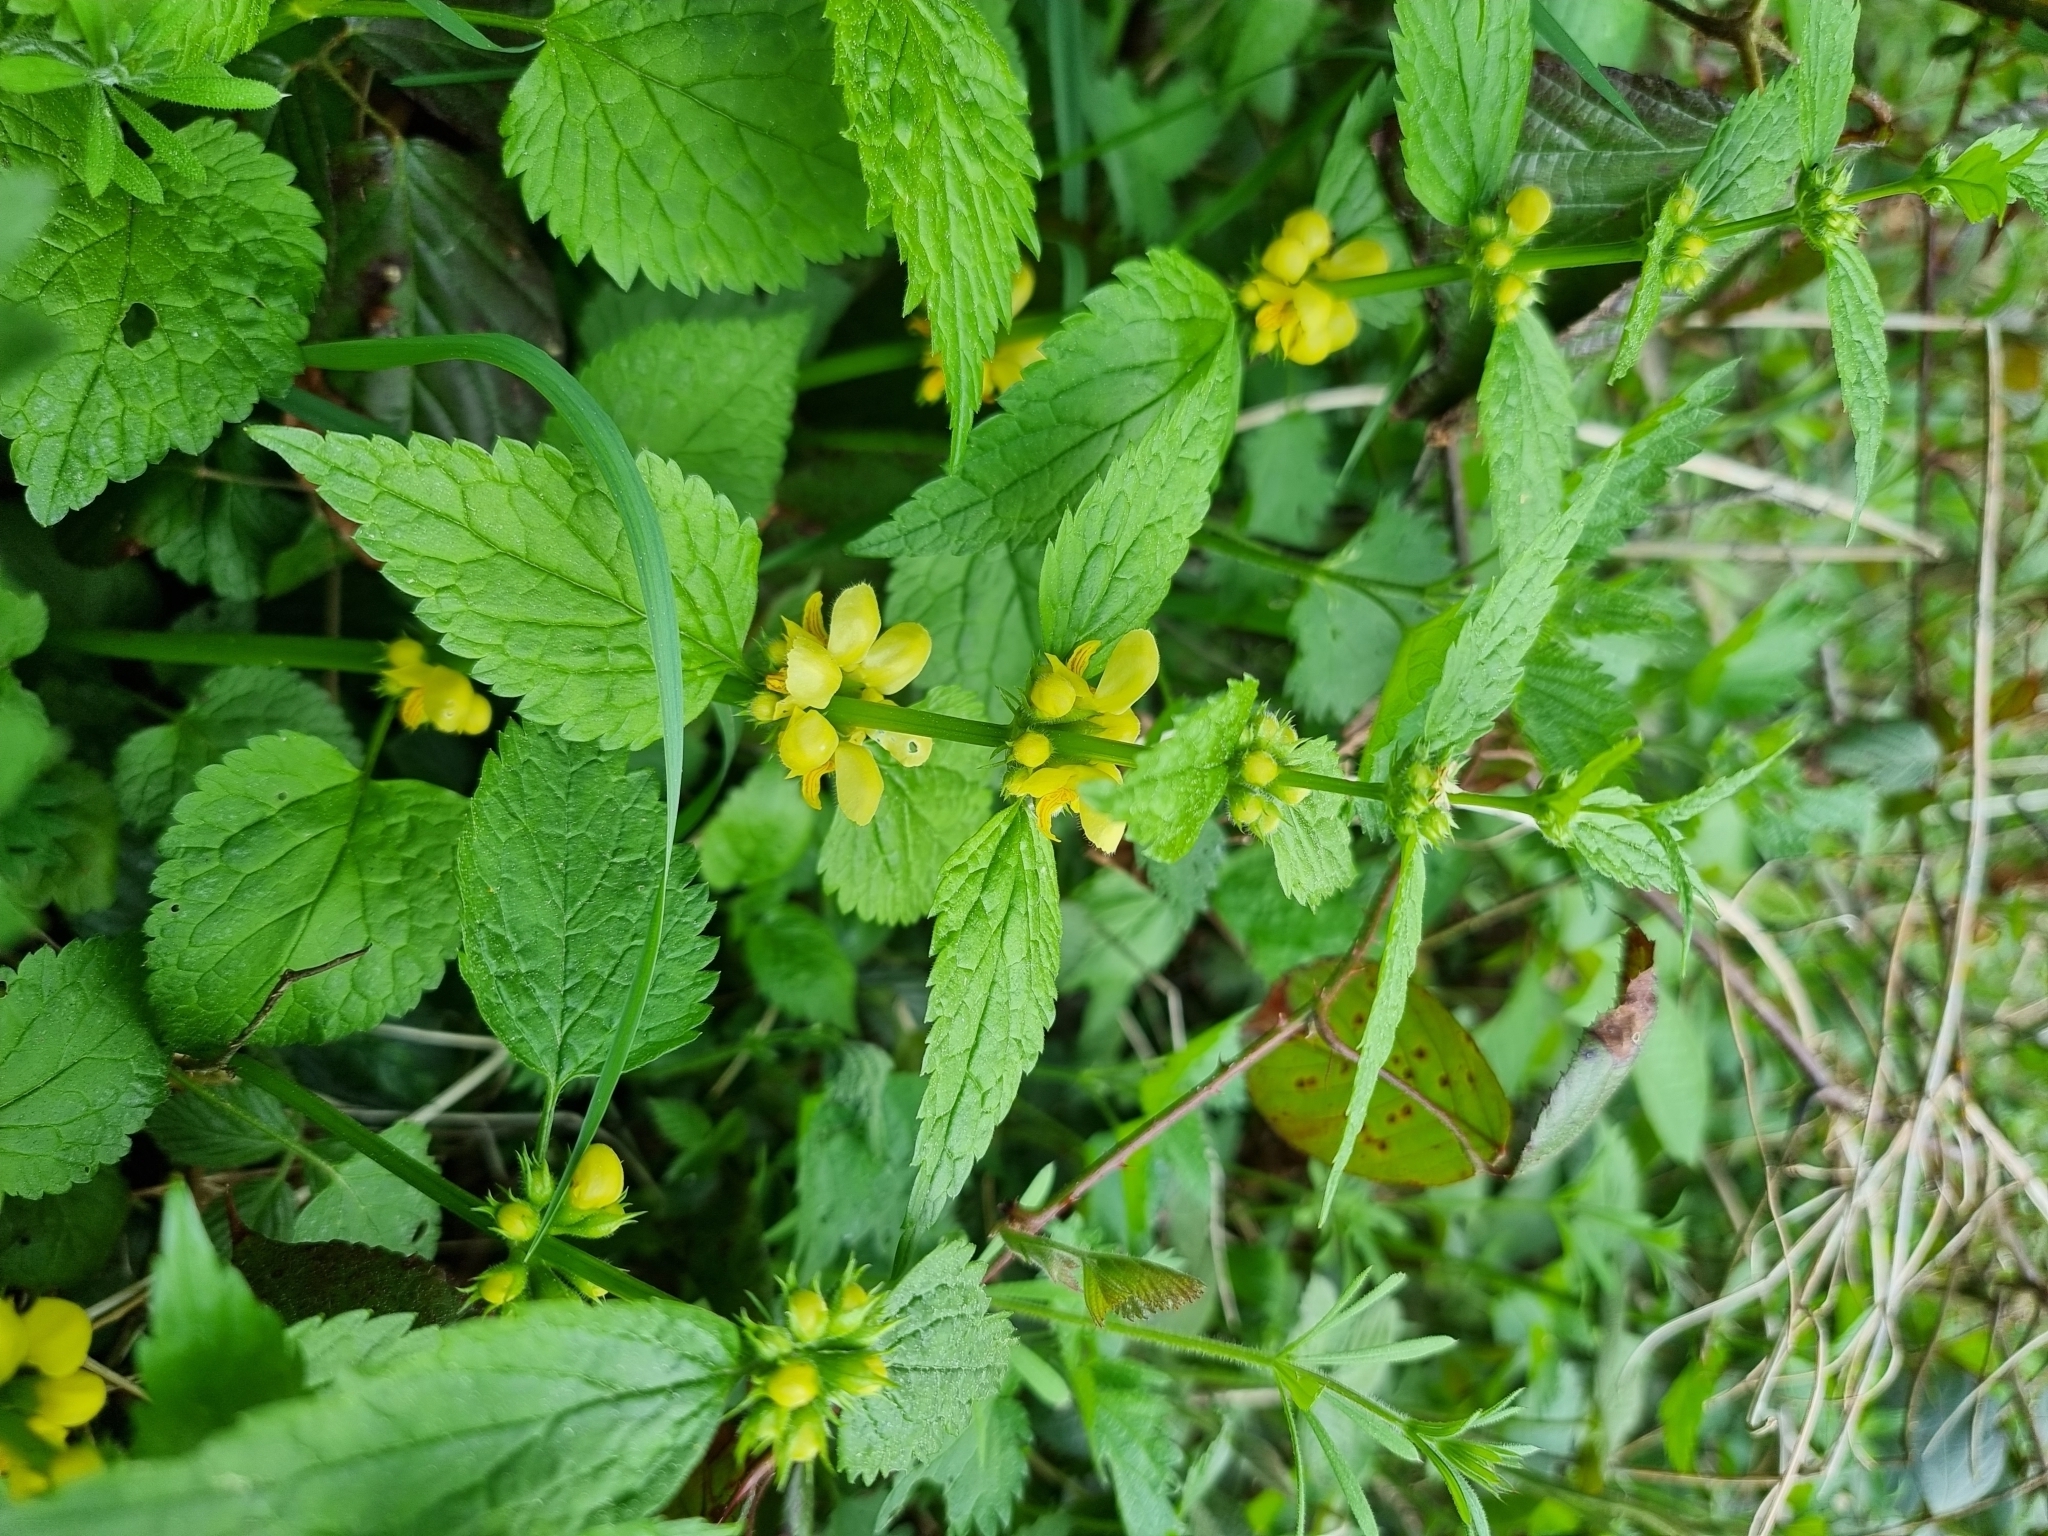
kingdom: Plantae
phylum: Tracheophyta
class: Magnoliopsida
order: Lamiales
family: Lamiaceae
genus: Lamium
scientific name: Lamium galeobdolon
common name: Yellow archangel
